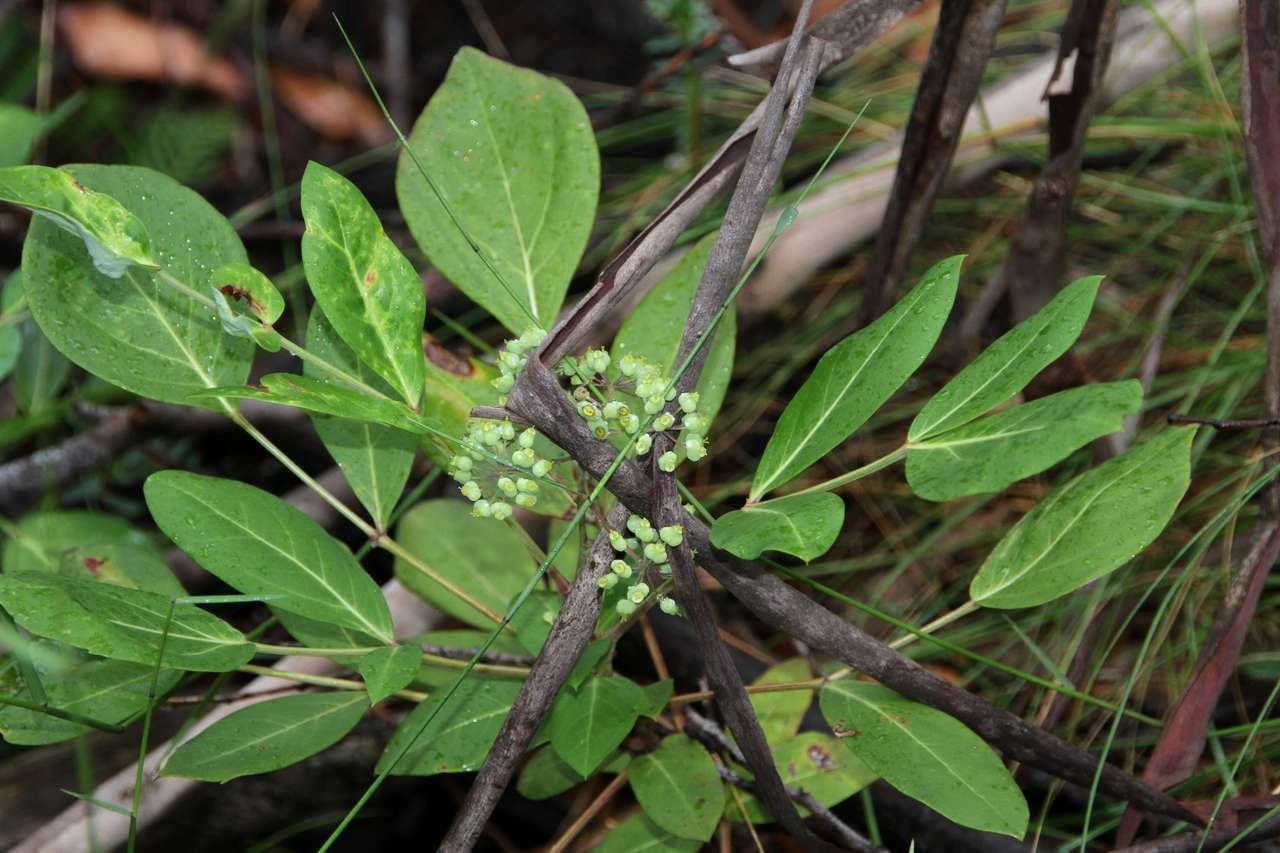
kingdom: Plantae
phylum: Tracheophyta
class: Magnoliopsida
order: Apiales
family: Araliaceae
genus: Polyscias
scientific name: Polyscias sambucifolia
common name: Elderberry-ash
